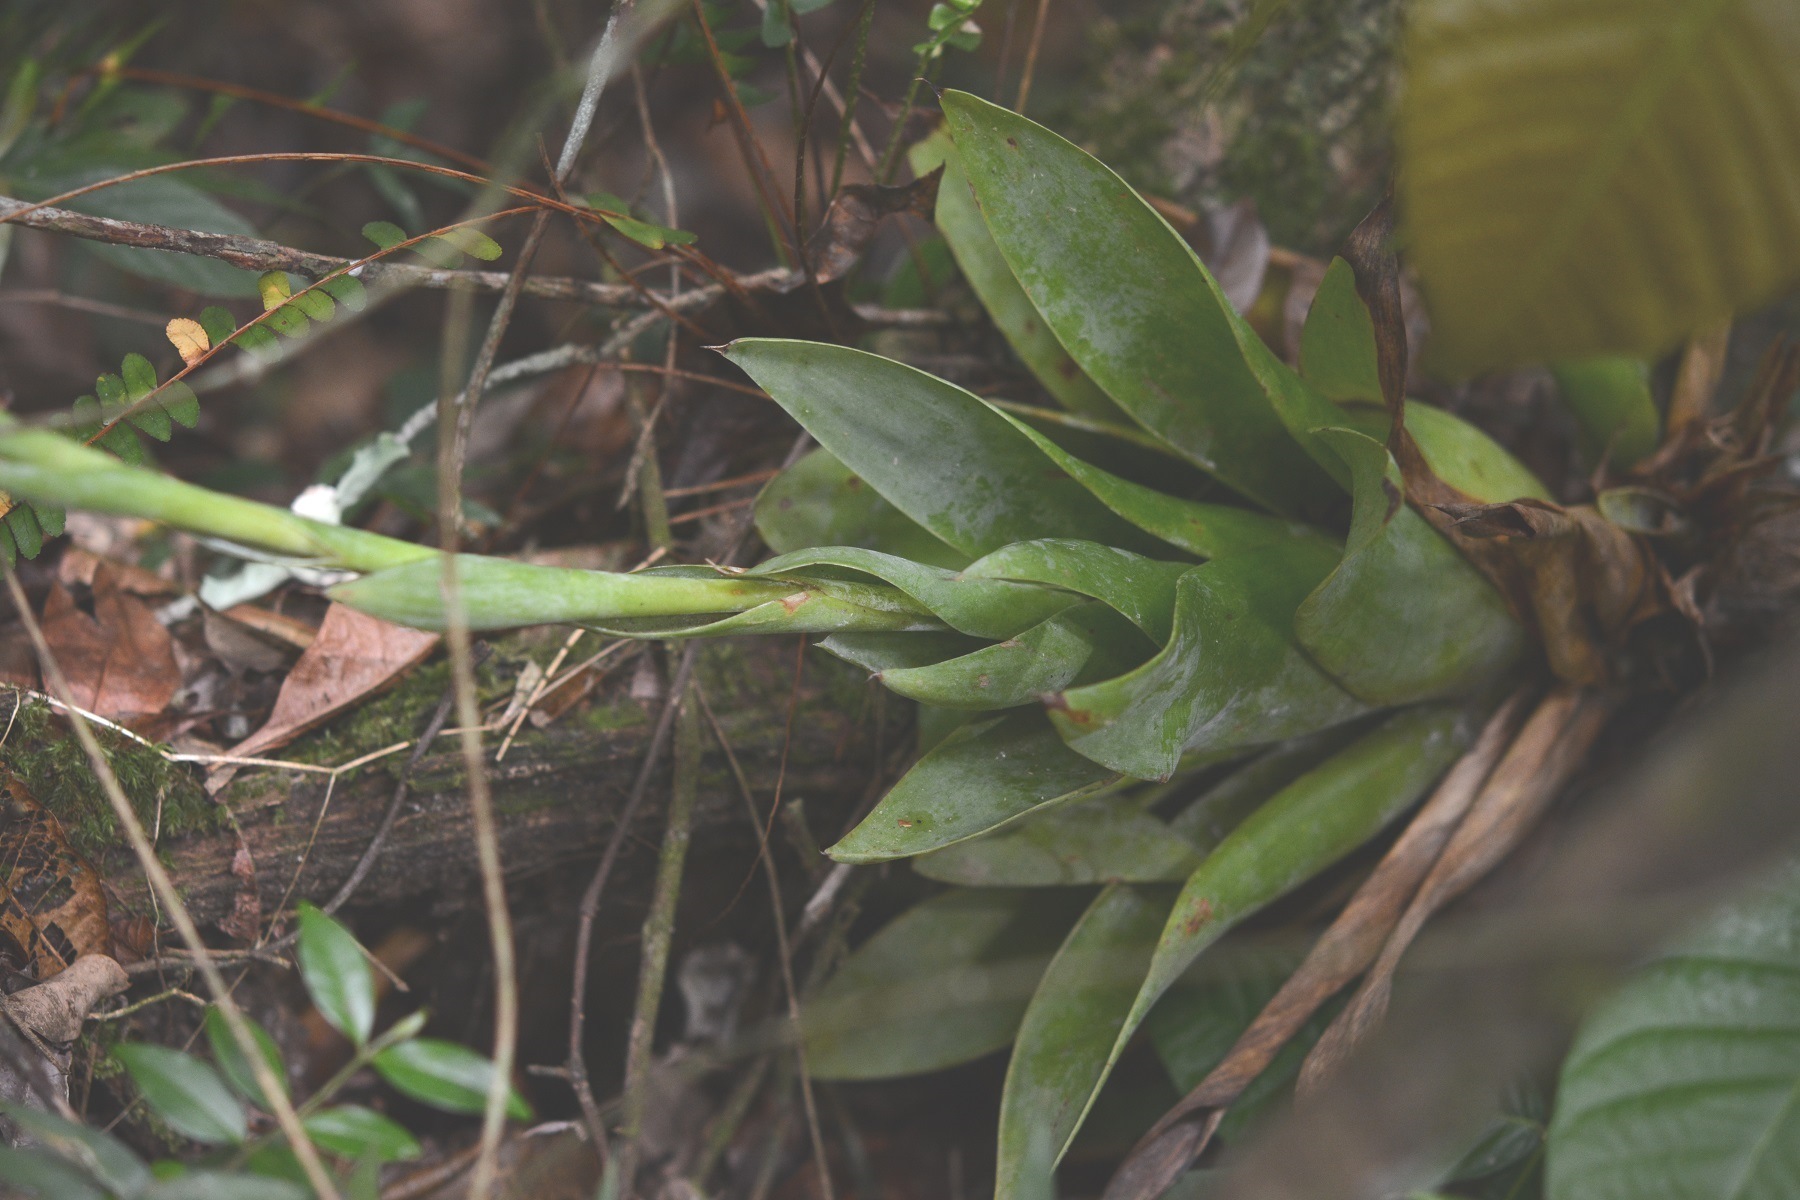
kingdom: Plantae
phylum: Tracheophyta
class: Liliopsida
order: Poales
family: Bromeliaceae
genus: Catopsis
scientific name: Catopsis occulta
